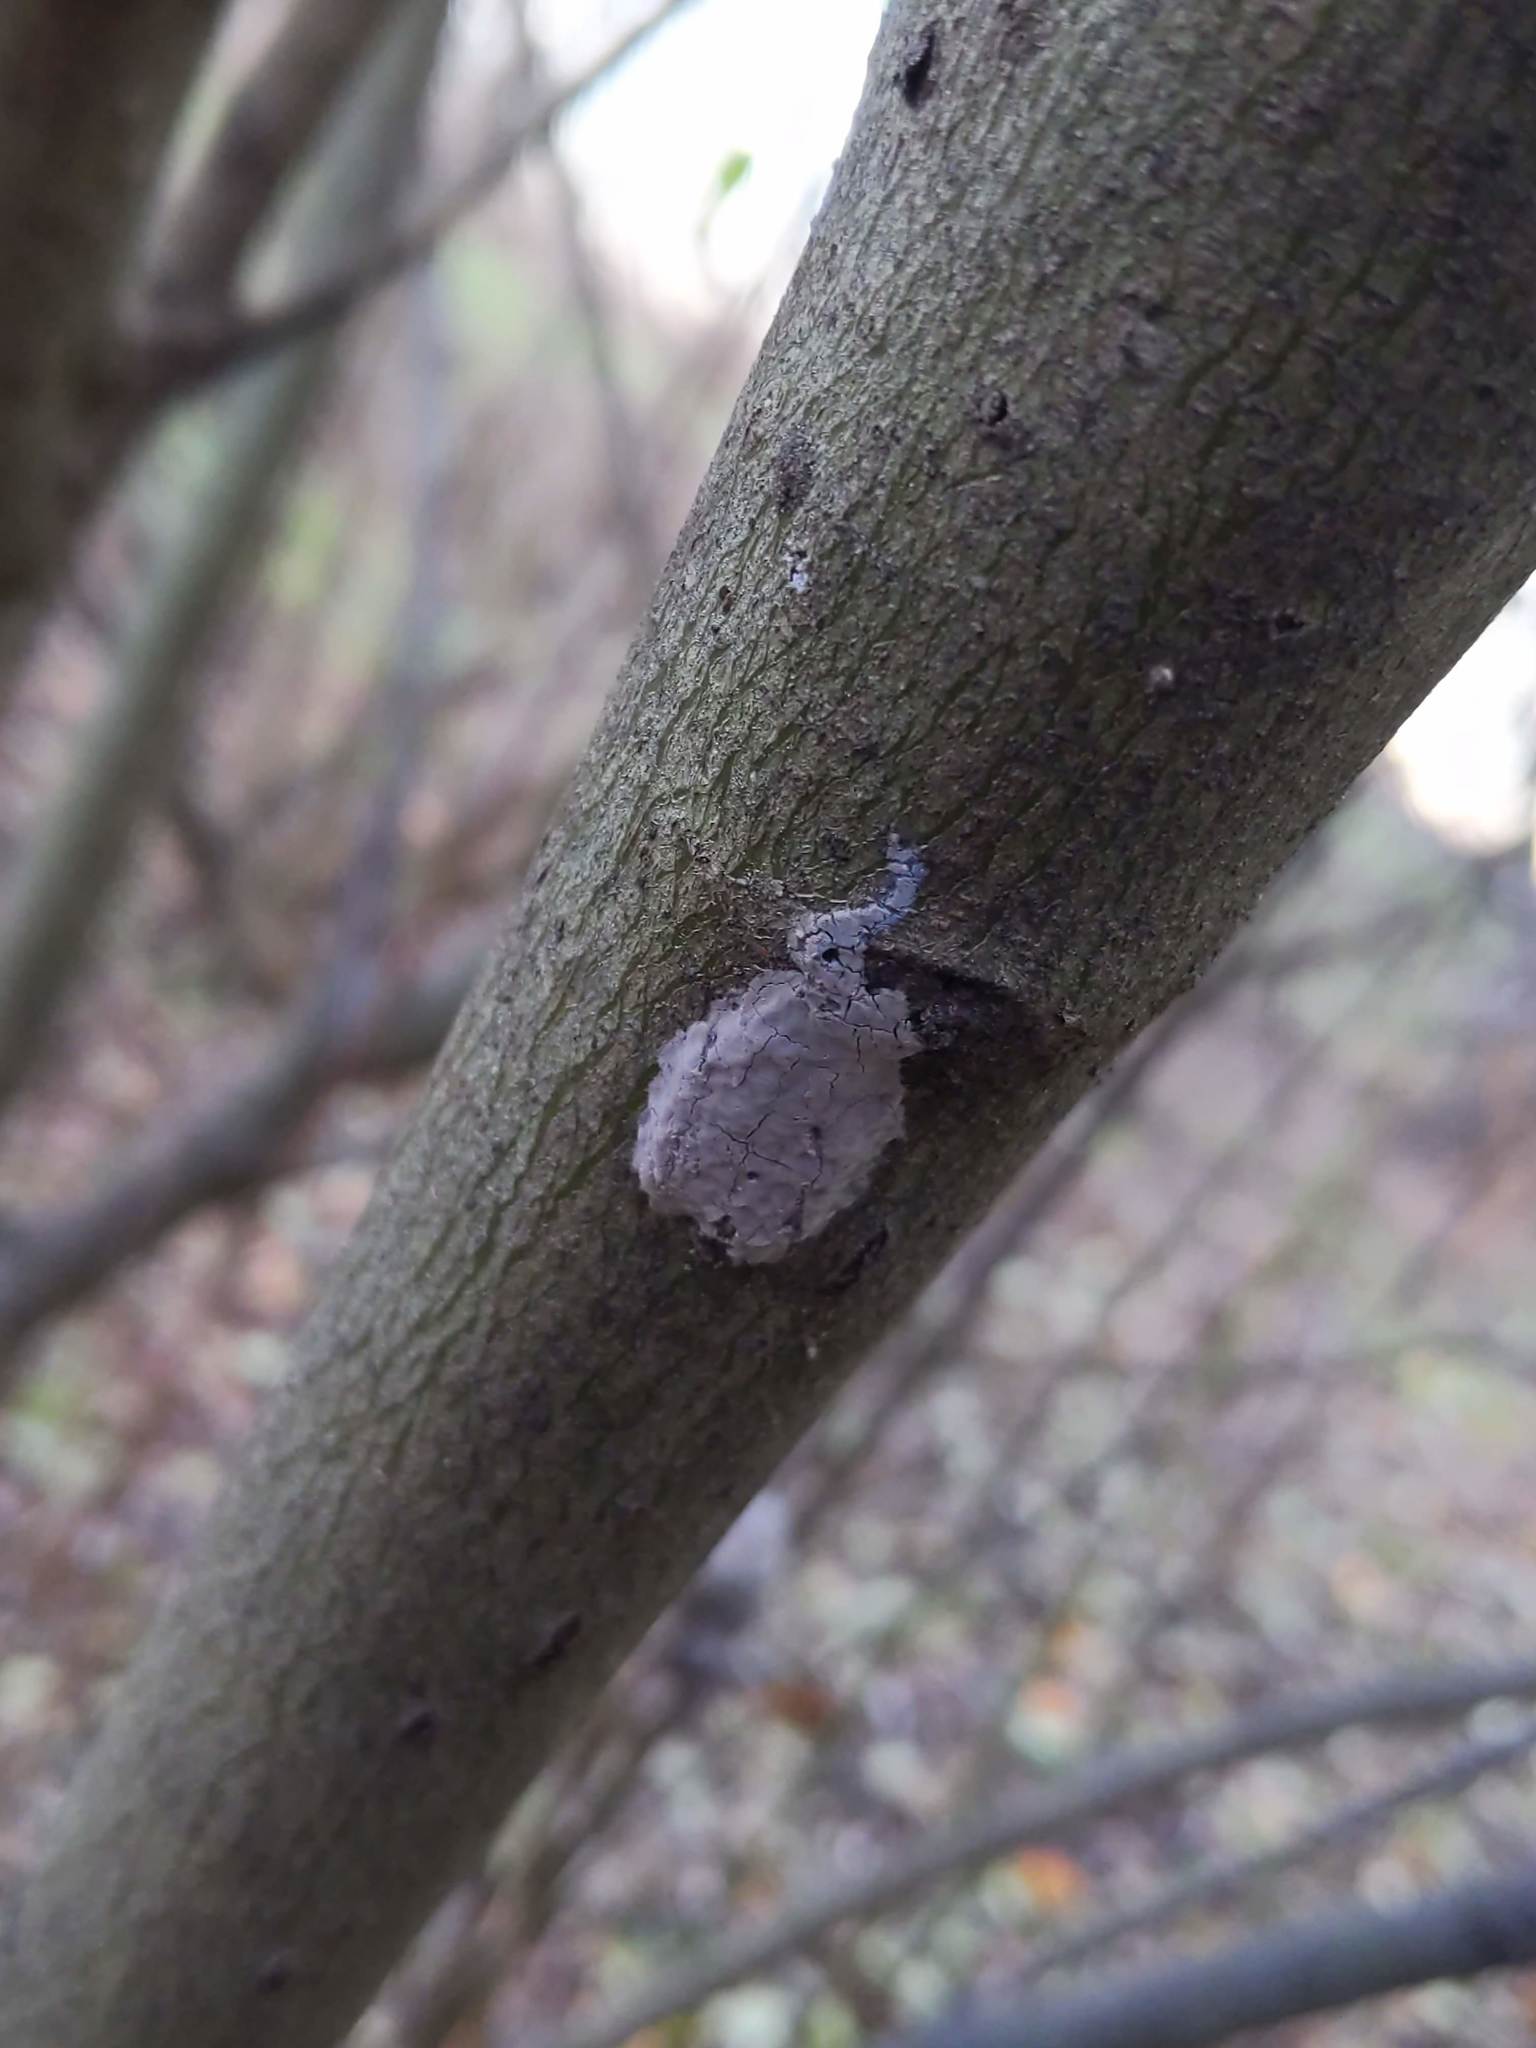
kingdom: Animalia
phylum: Arthropoda
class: Insecta
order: Hemiptera
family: Fulgoridae
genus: Lycorma
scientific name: Lycorma delicatula
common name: Spotted lanternfly
